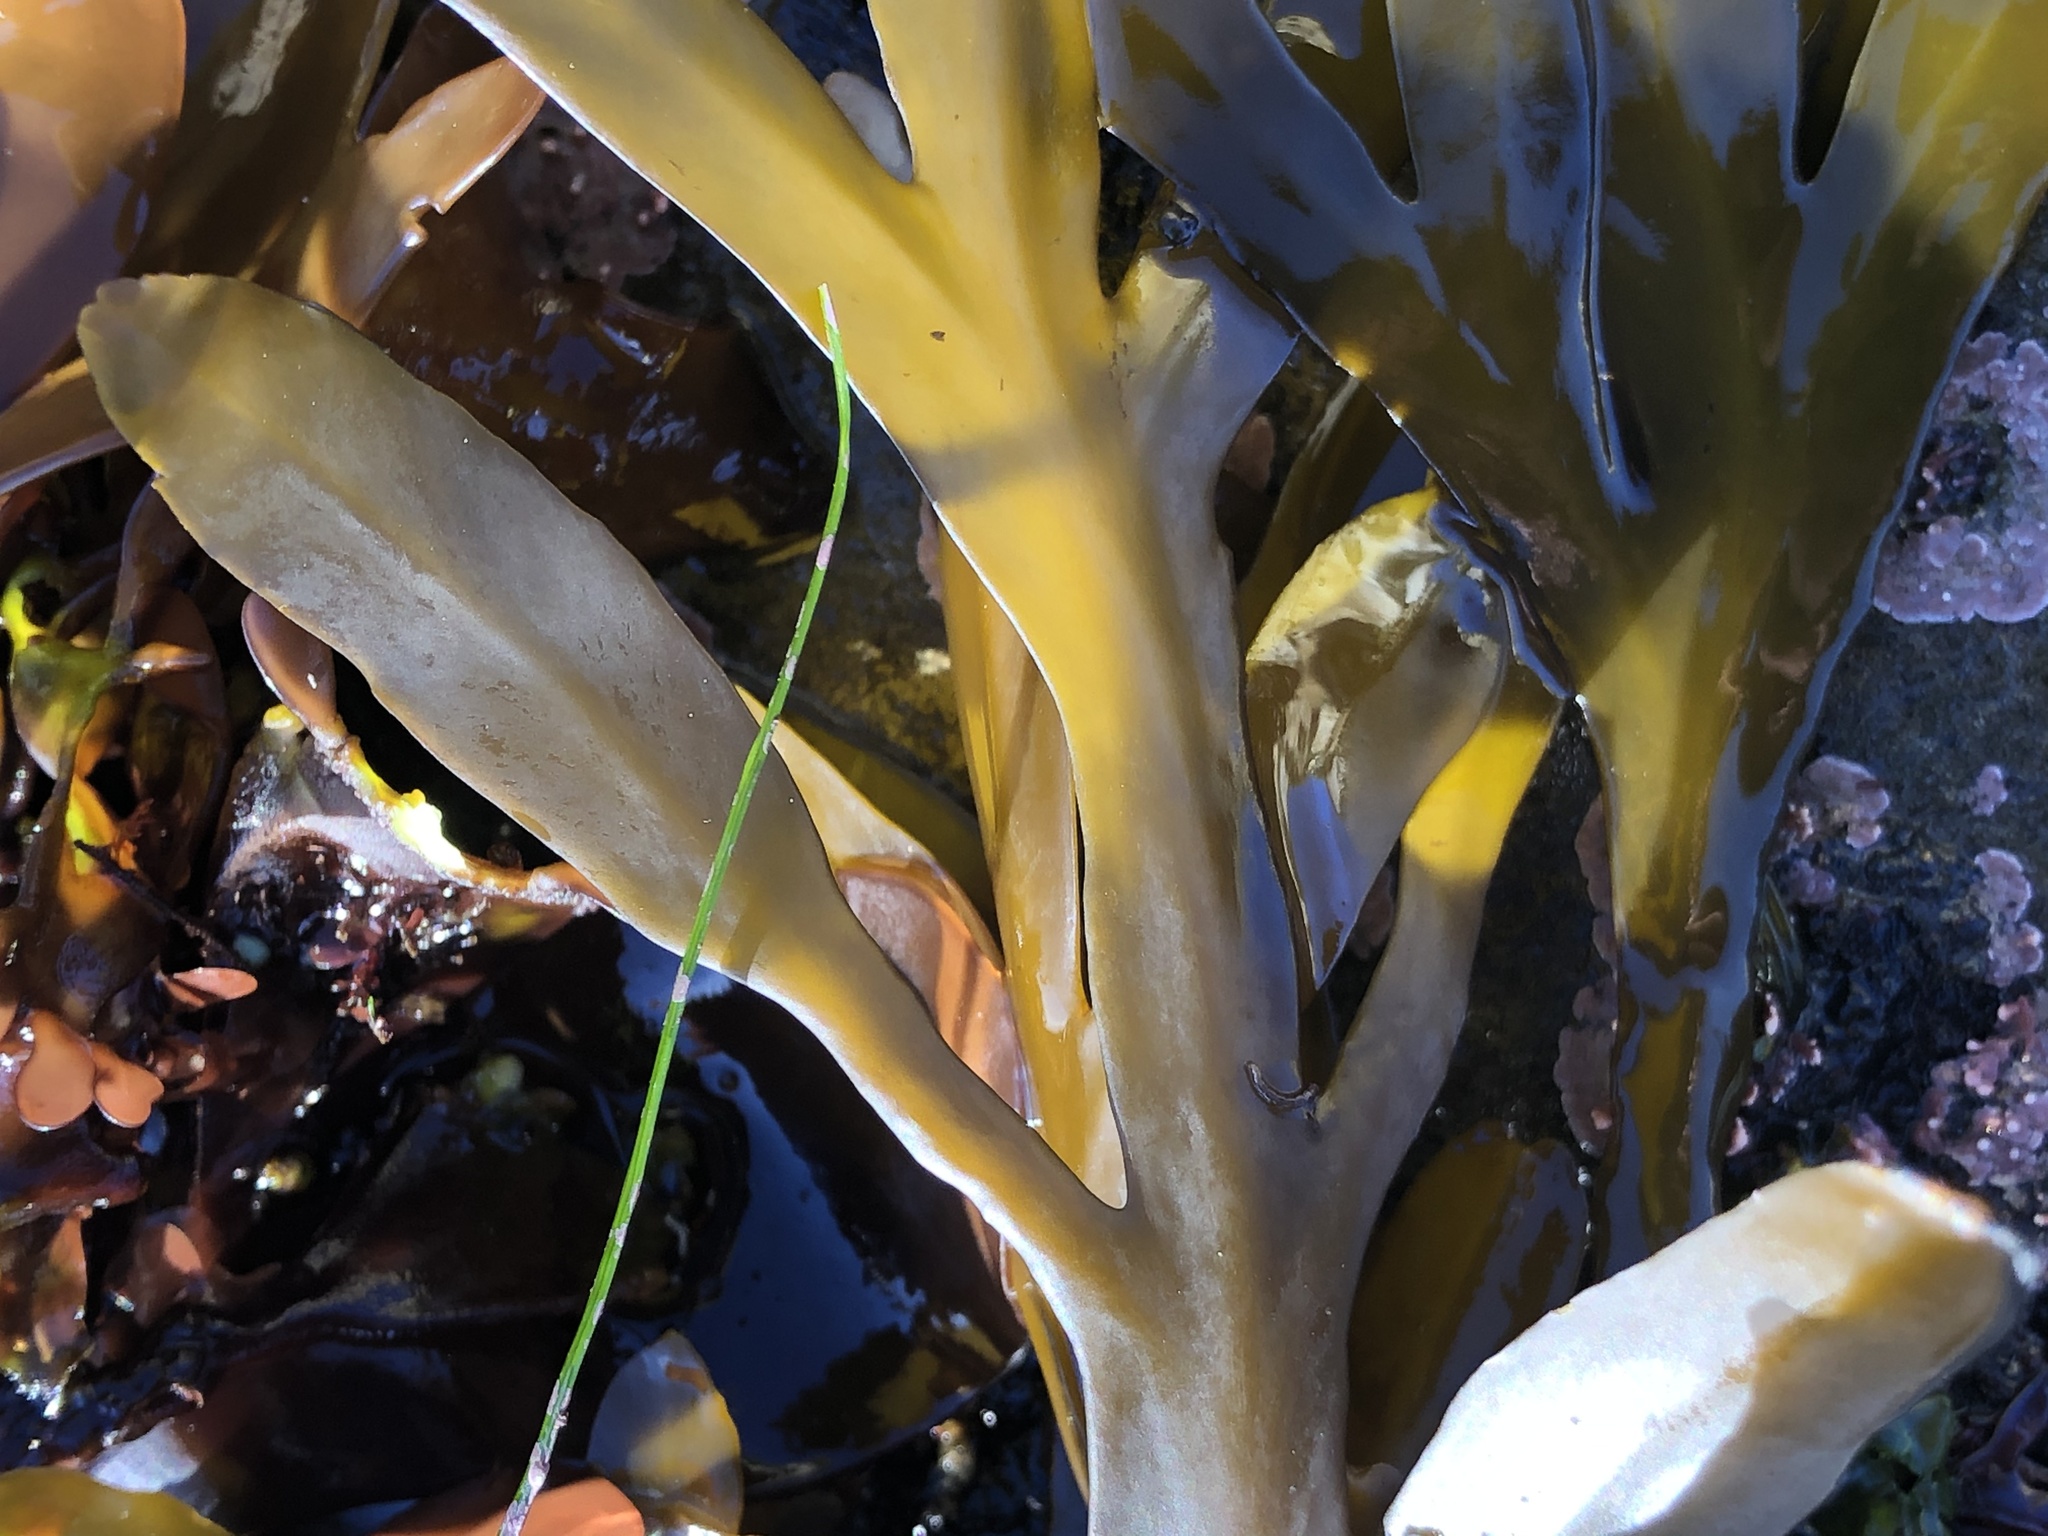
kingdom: Chromista
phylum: Ochrophyta
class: Phaeophyceae
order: Fucales
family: Sargassaceae
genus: Stephanocystis
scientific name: Stephanocystis
